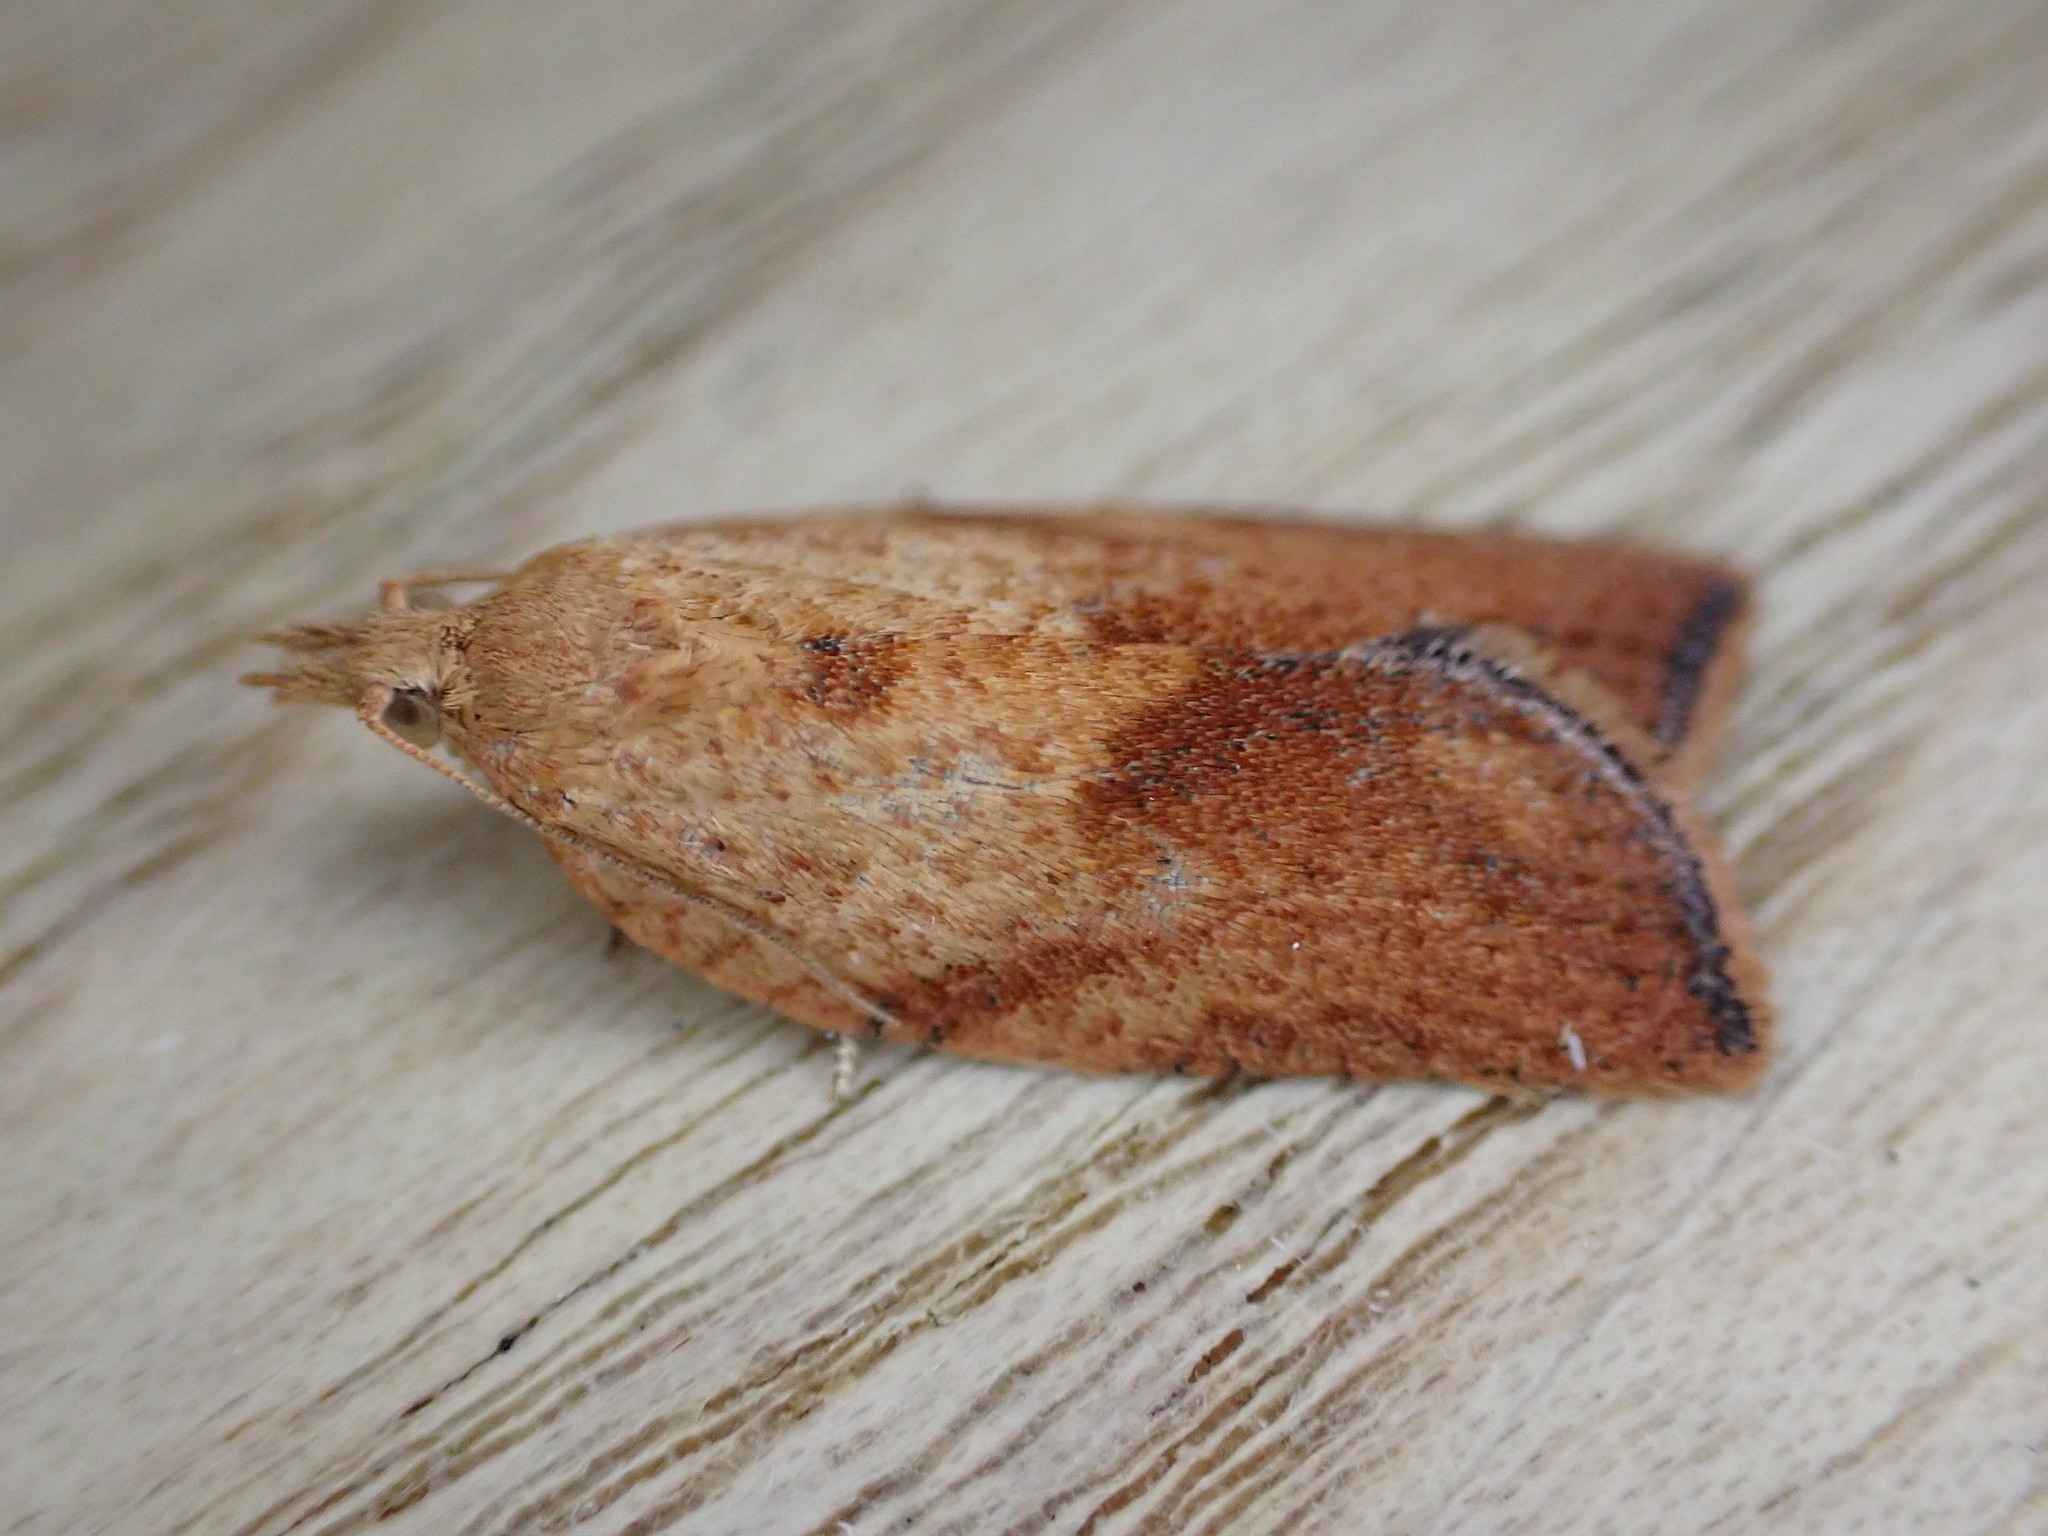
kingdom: Animalia
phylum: Arthropoda
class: Insecta
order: Lepidoptera
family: Tortricidae
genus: Epiphyas
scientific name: Epiphyas postvittana
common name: Light brown apple moth
